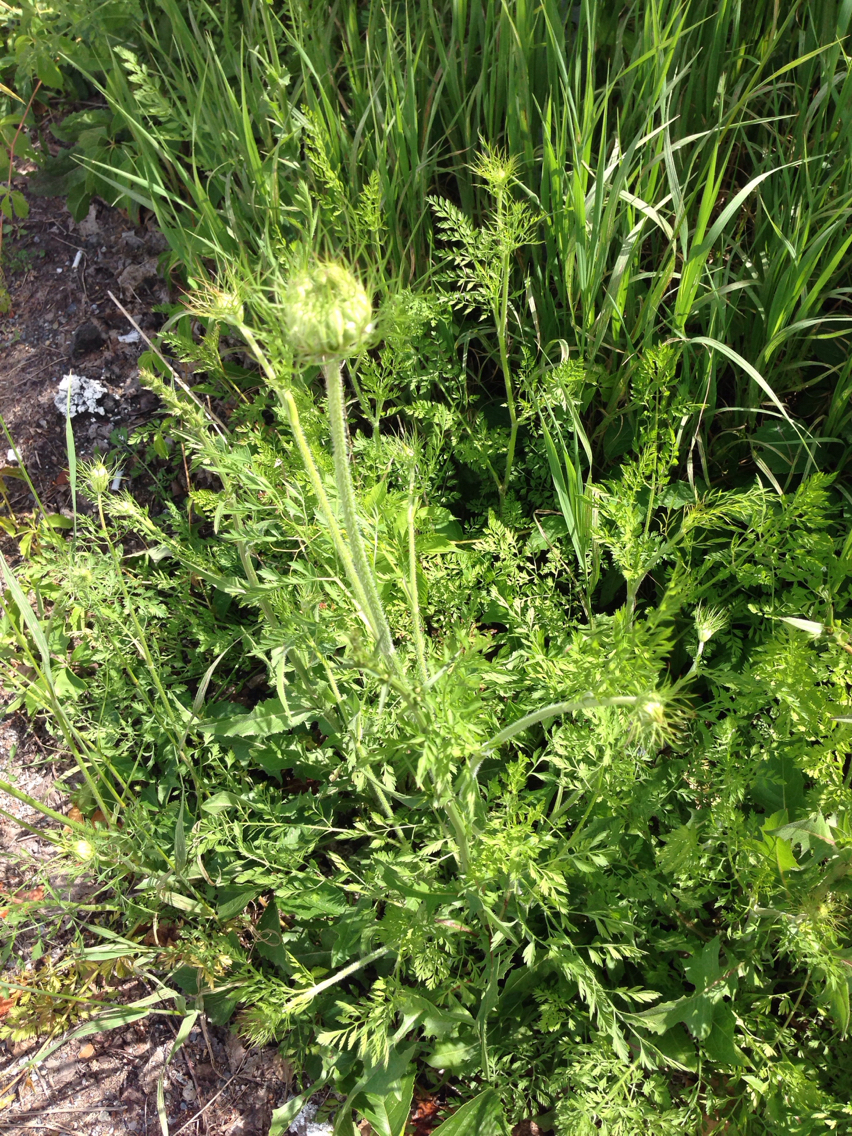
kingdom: Plantae
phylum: Tracheophyta
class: Magnoliopsida
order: Apiales
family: Apiaceae
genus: Daucus
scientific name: Daucus carota
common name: Wild carrot
